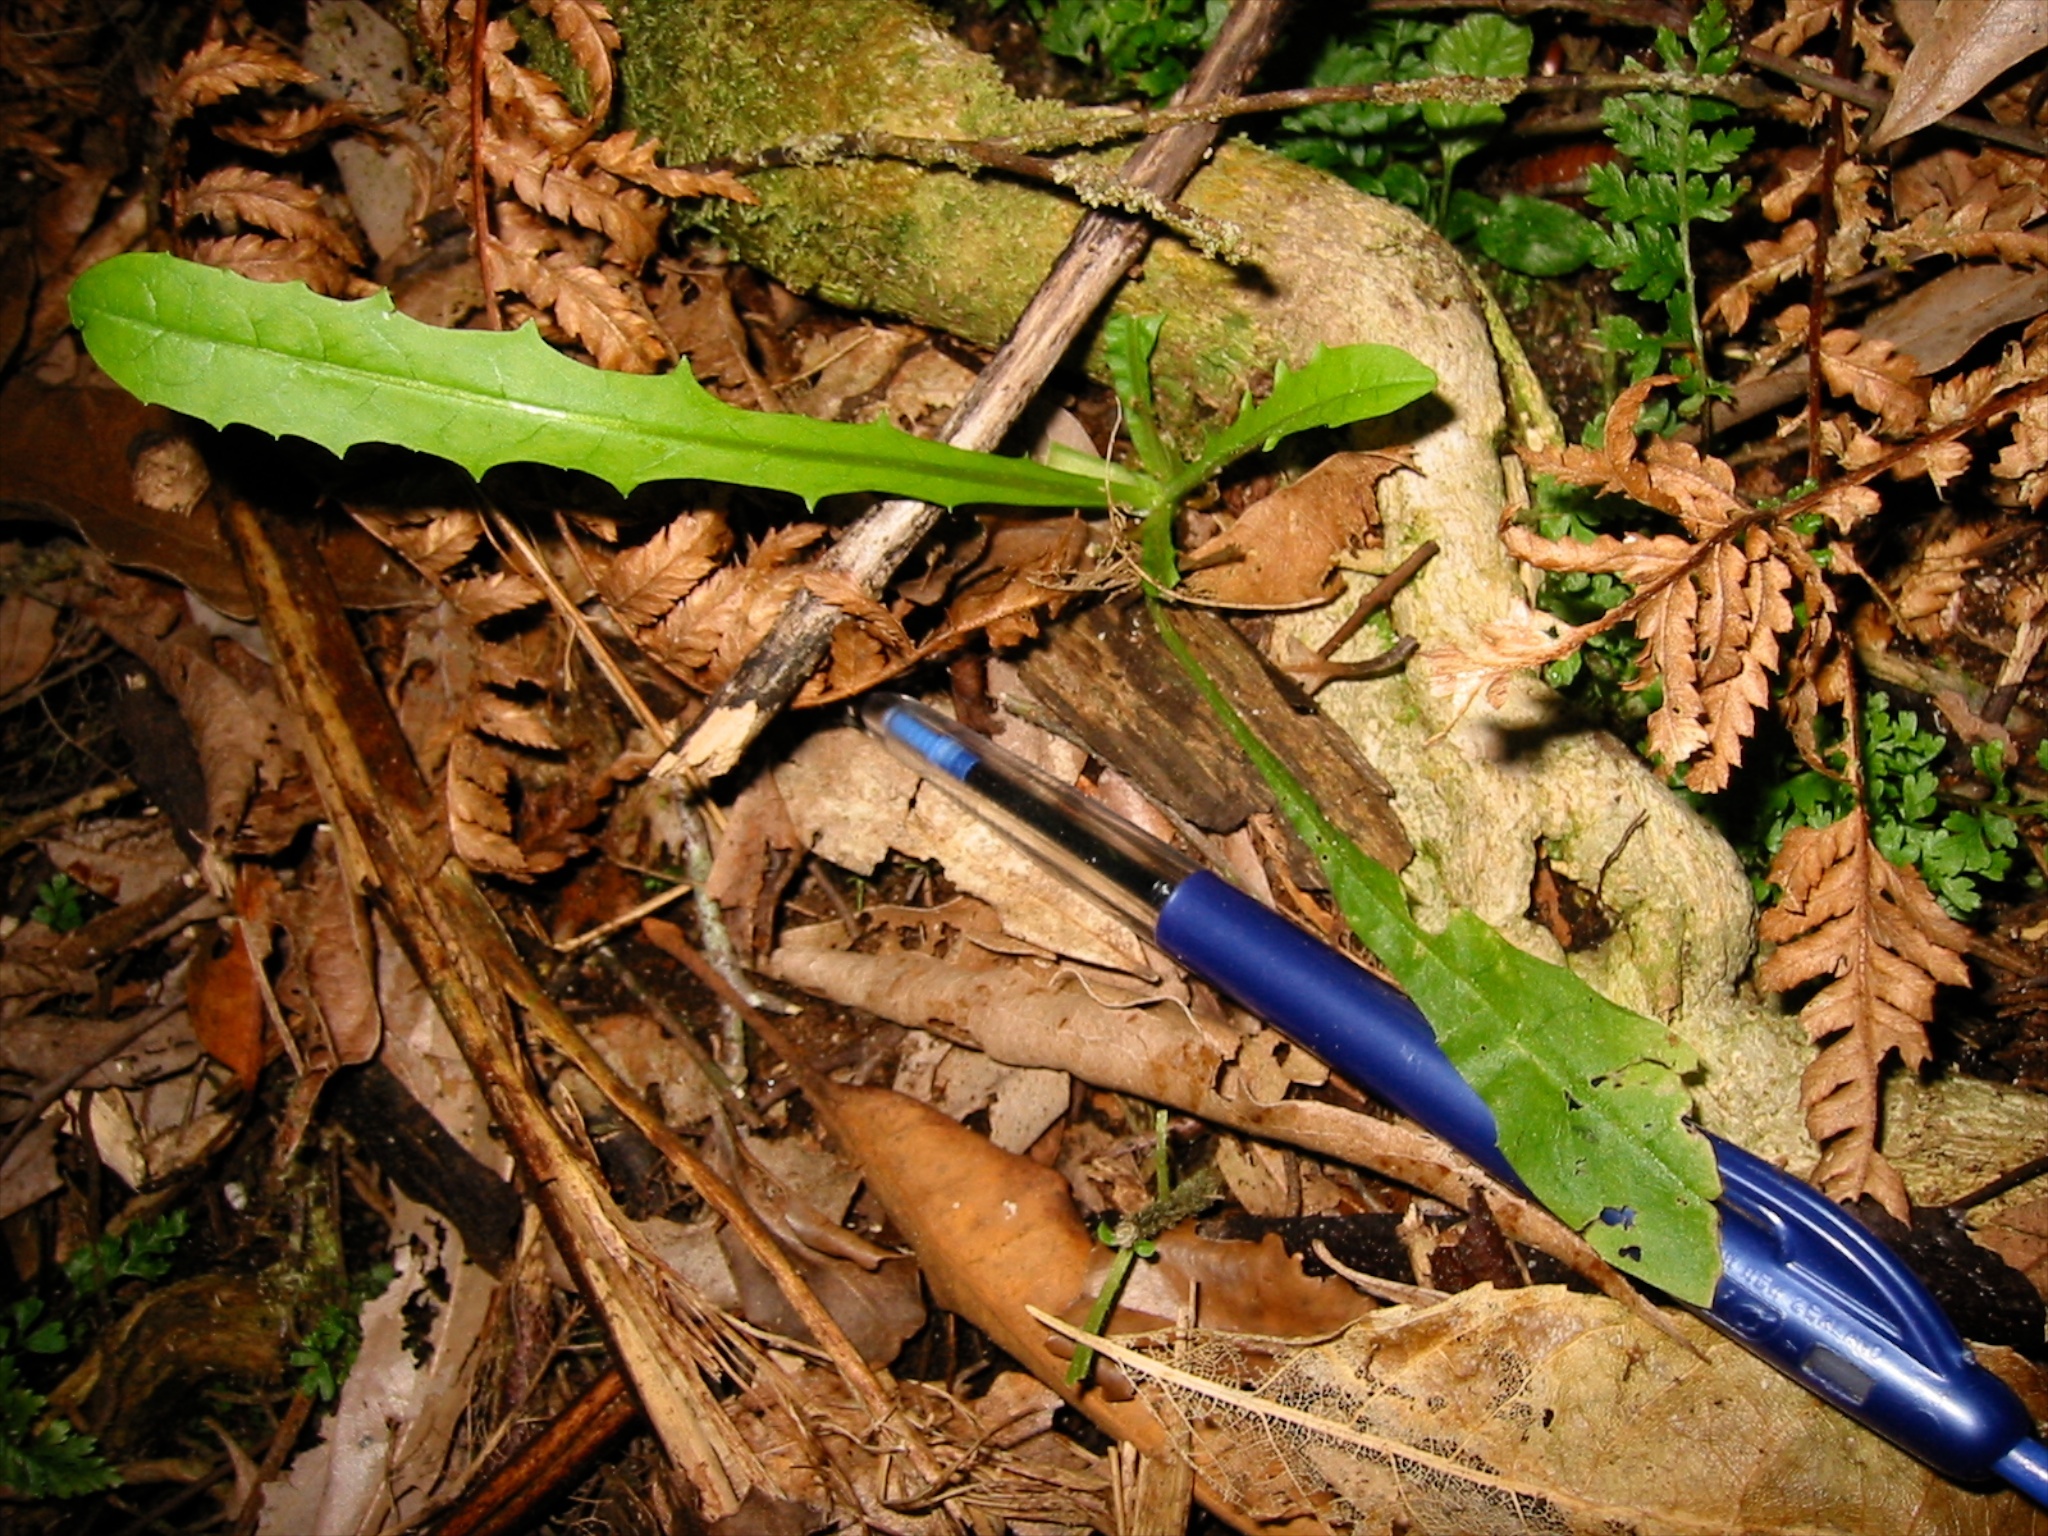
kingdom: Plantae
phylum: Tracheophyta
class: Magnoliopsida
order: Asterales
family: Asteraceae
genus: Crepis
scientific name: Crepis capillaris
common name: Smooth hawksbeard
